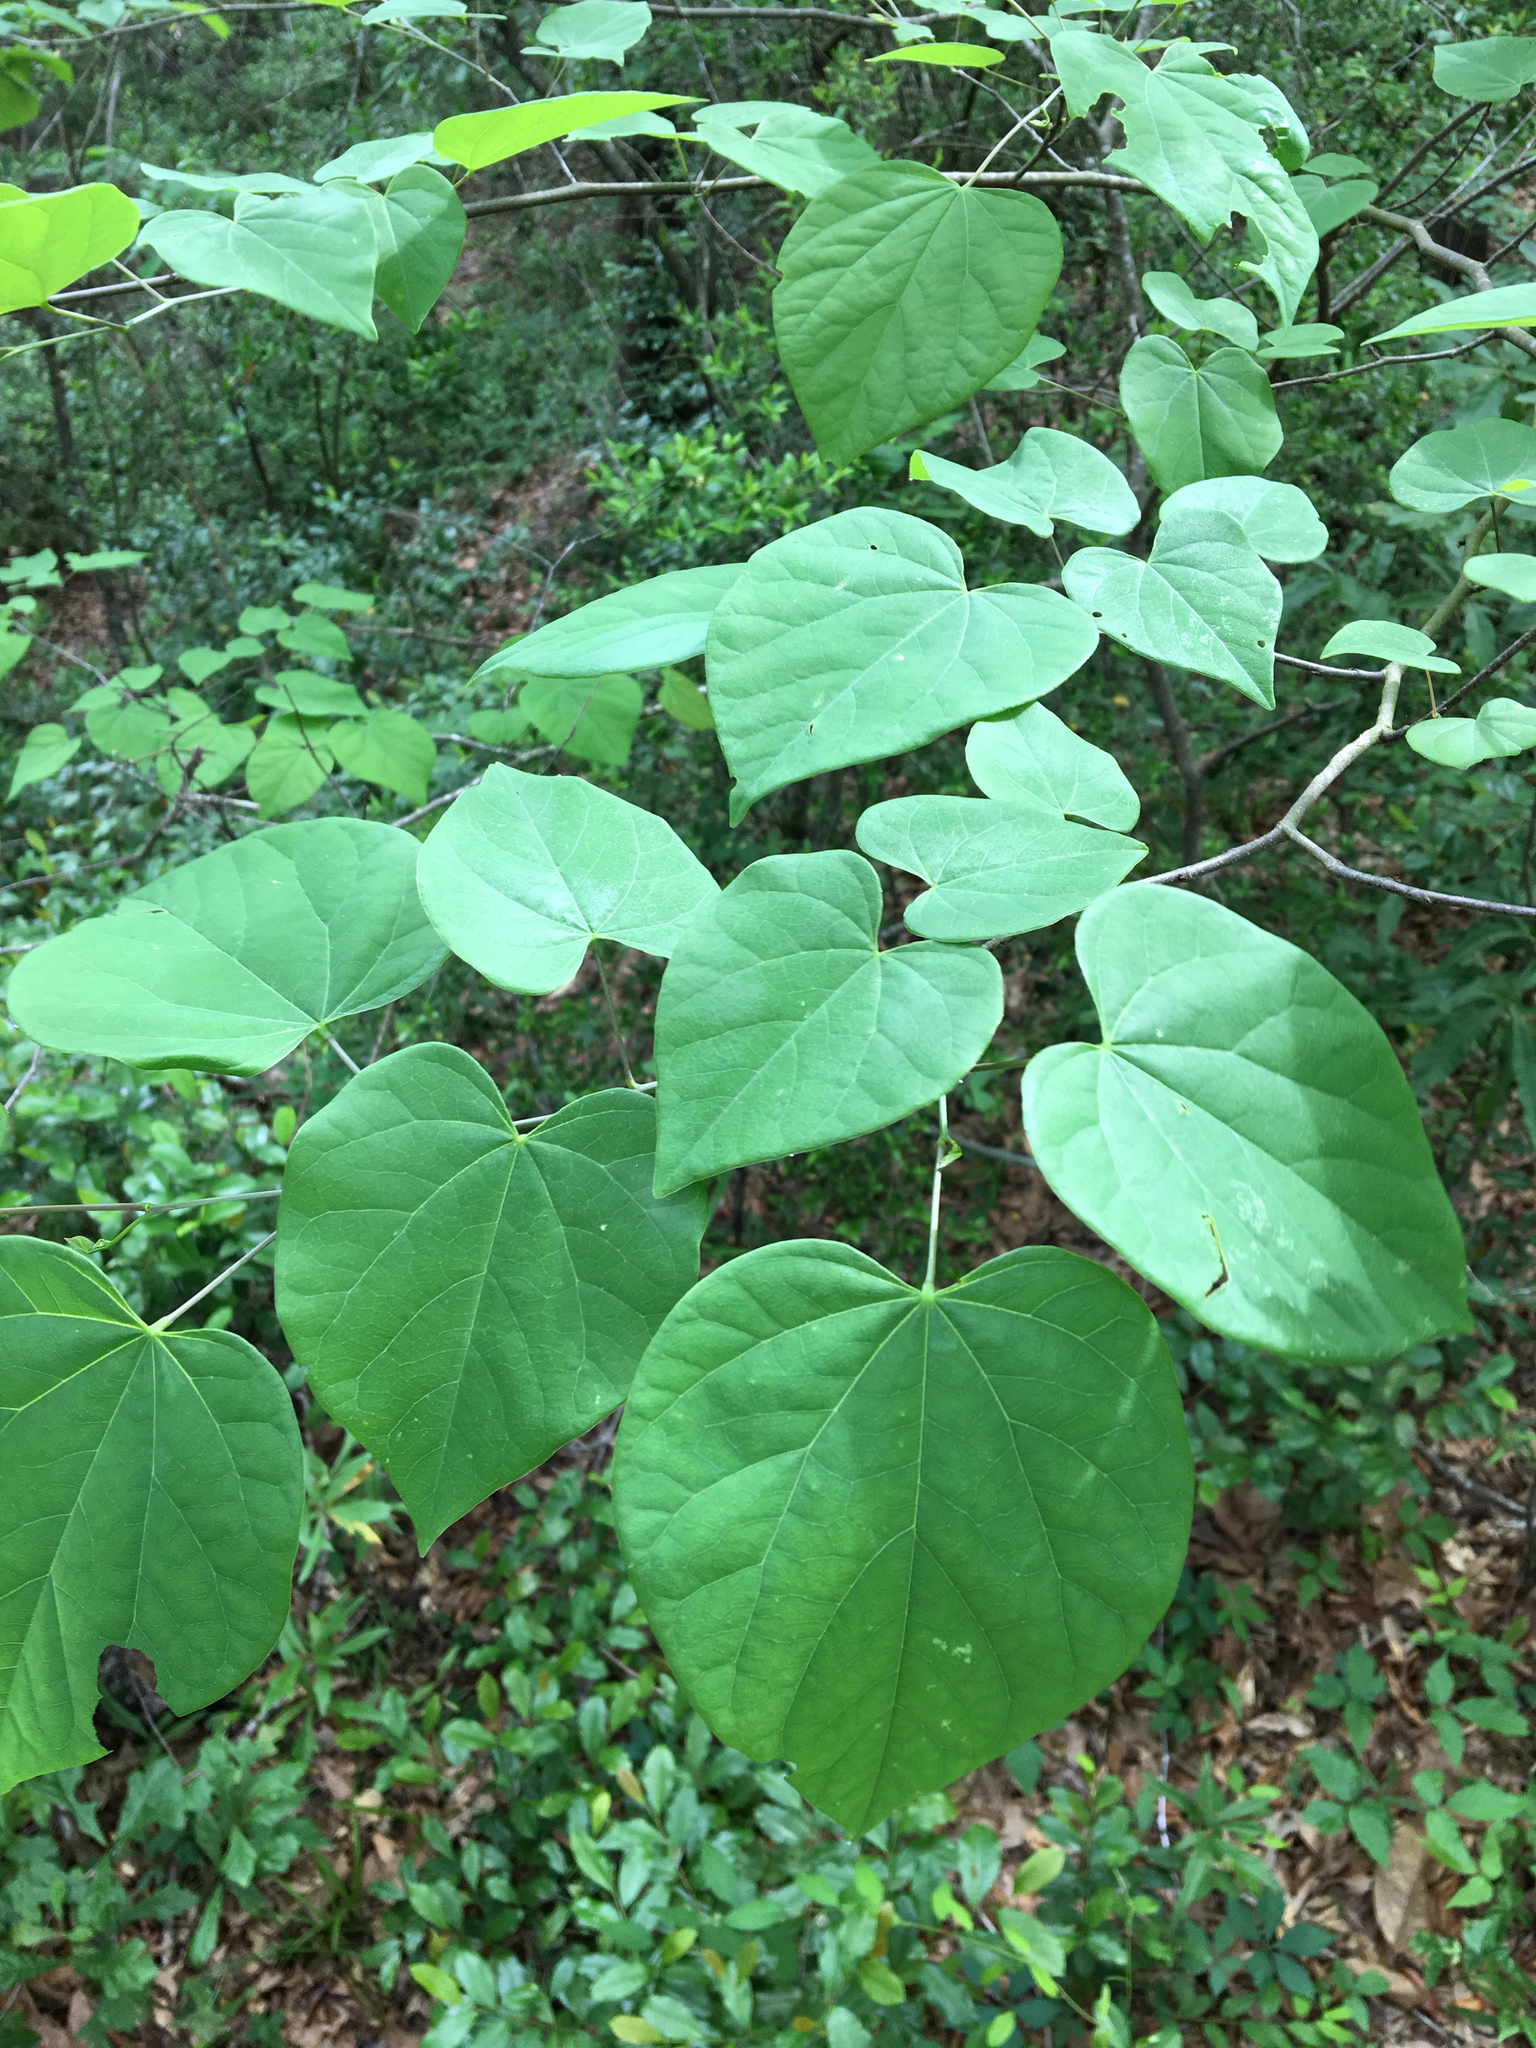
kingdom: Plantae
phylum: Tracheophyta
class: Magnoliopsida
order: Fabales
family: Fabaceae
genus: Cercis
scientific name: Cercis canadensis
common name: Eastern redbud
